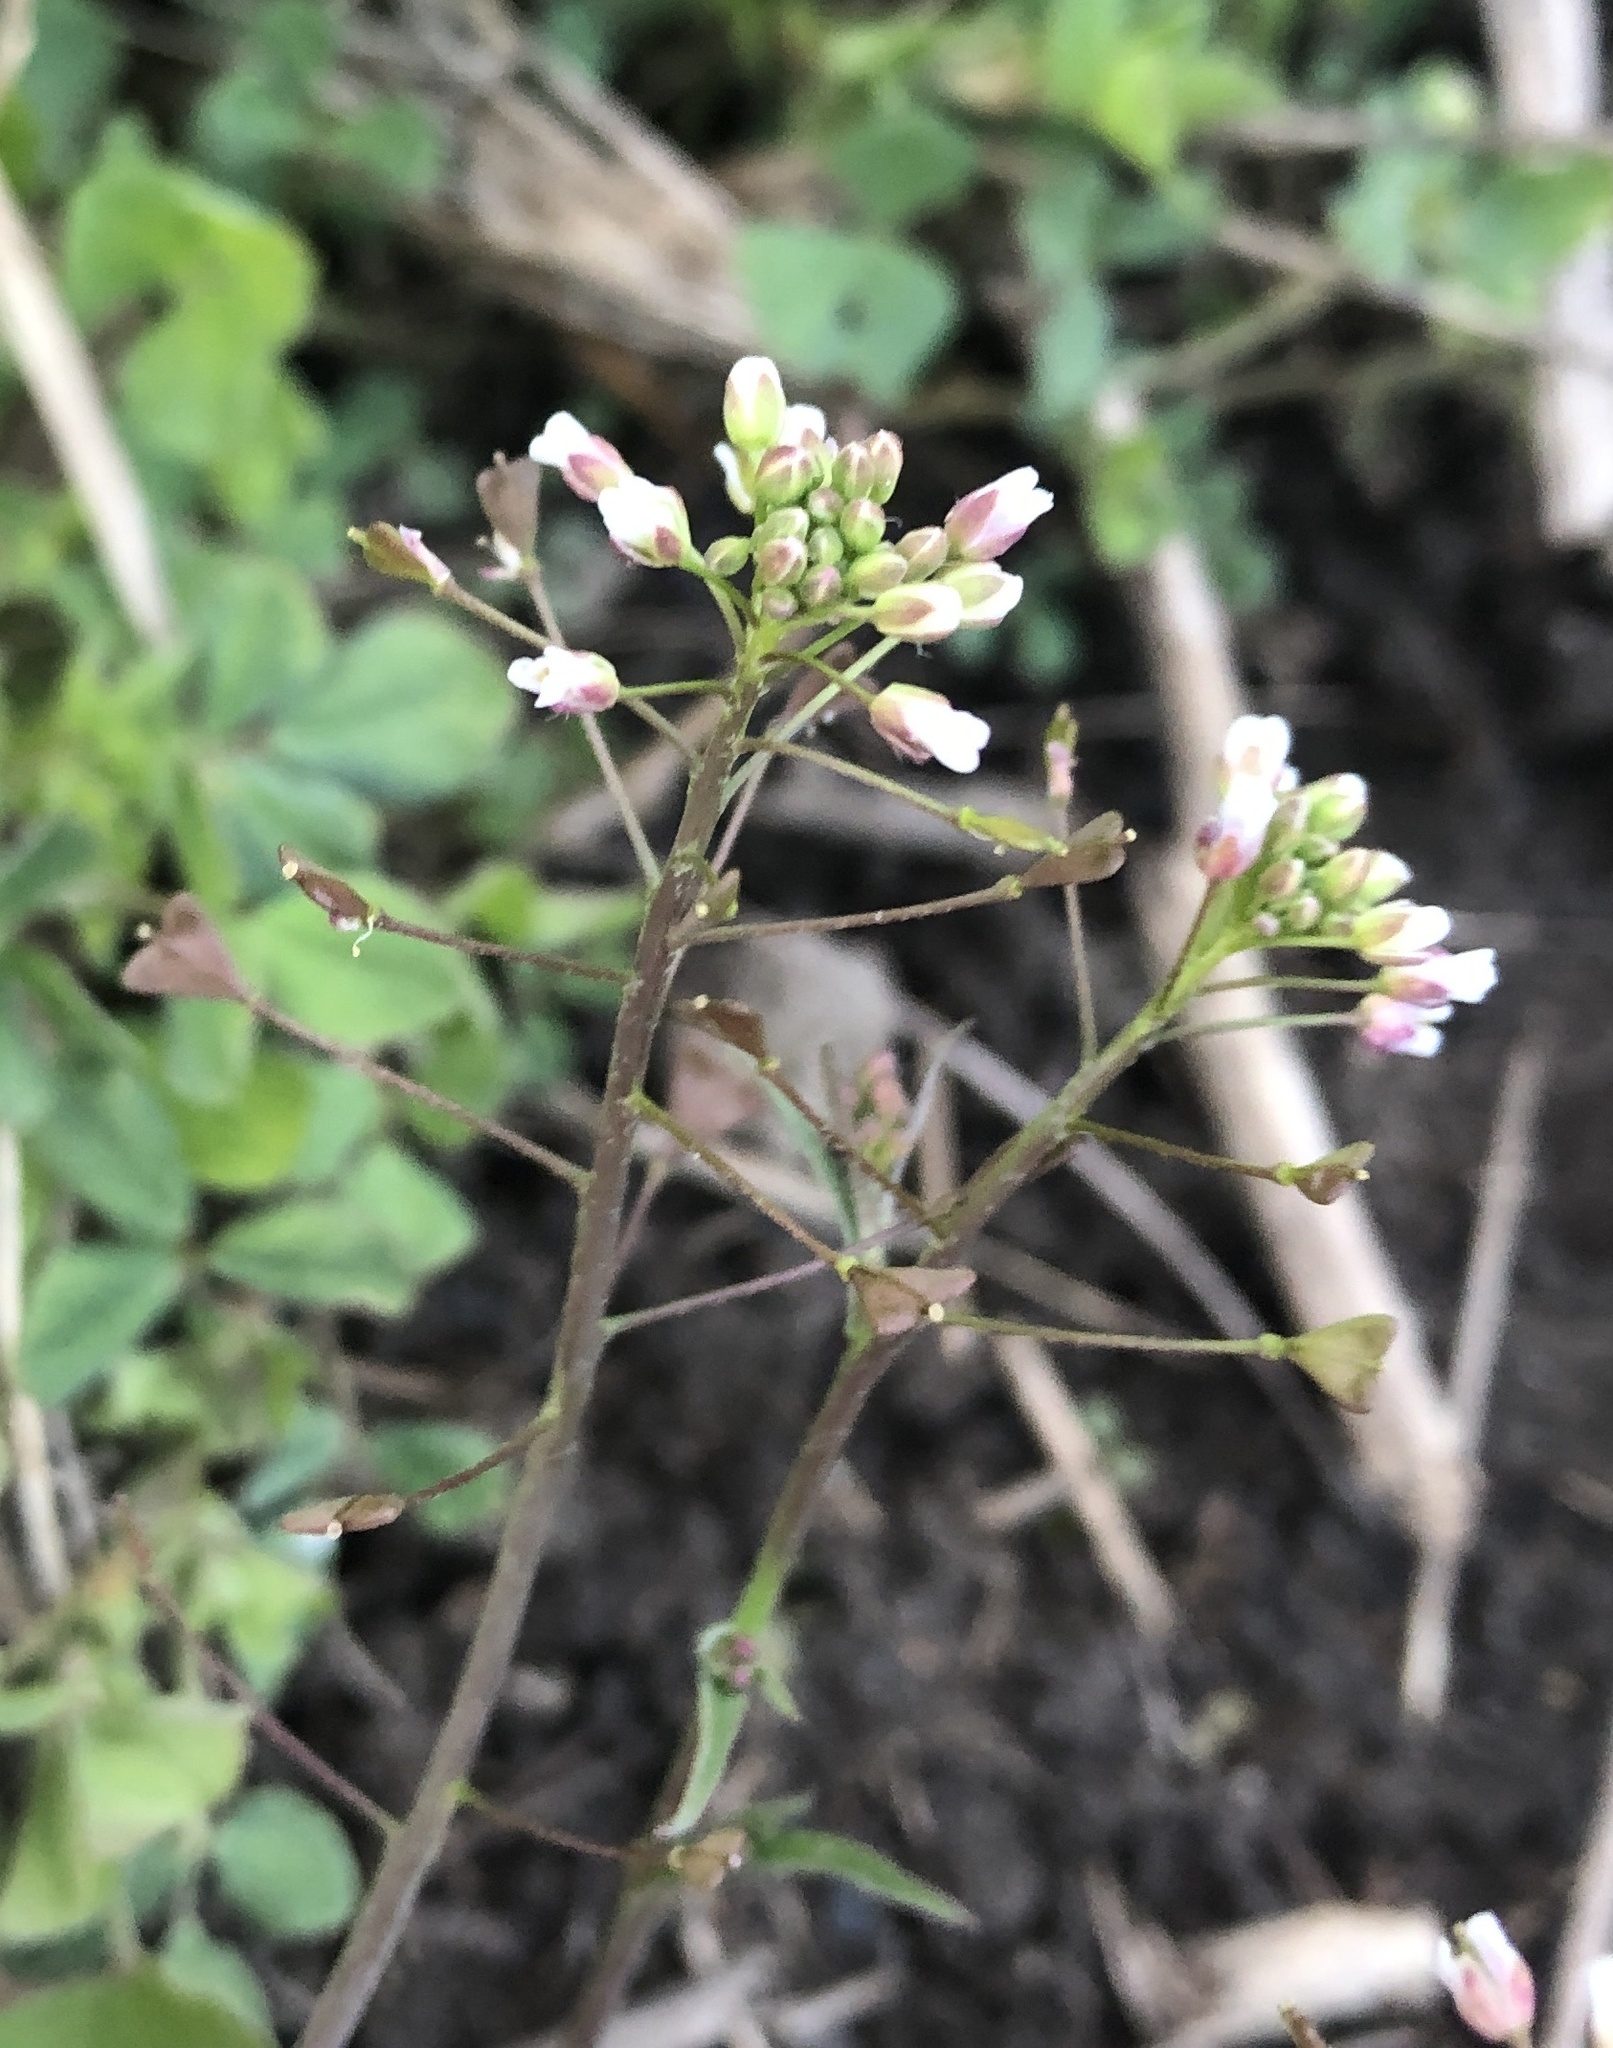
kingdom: Plantae
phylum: Tracheophyta
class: Magnoliopsida
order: Brassicales
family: Brassicaceae
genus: Capsella
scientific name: Capsella bursa-pastoris
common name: Shepherd's purse
